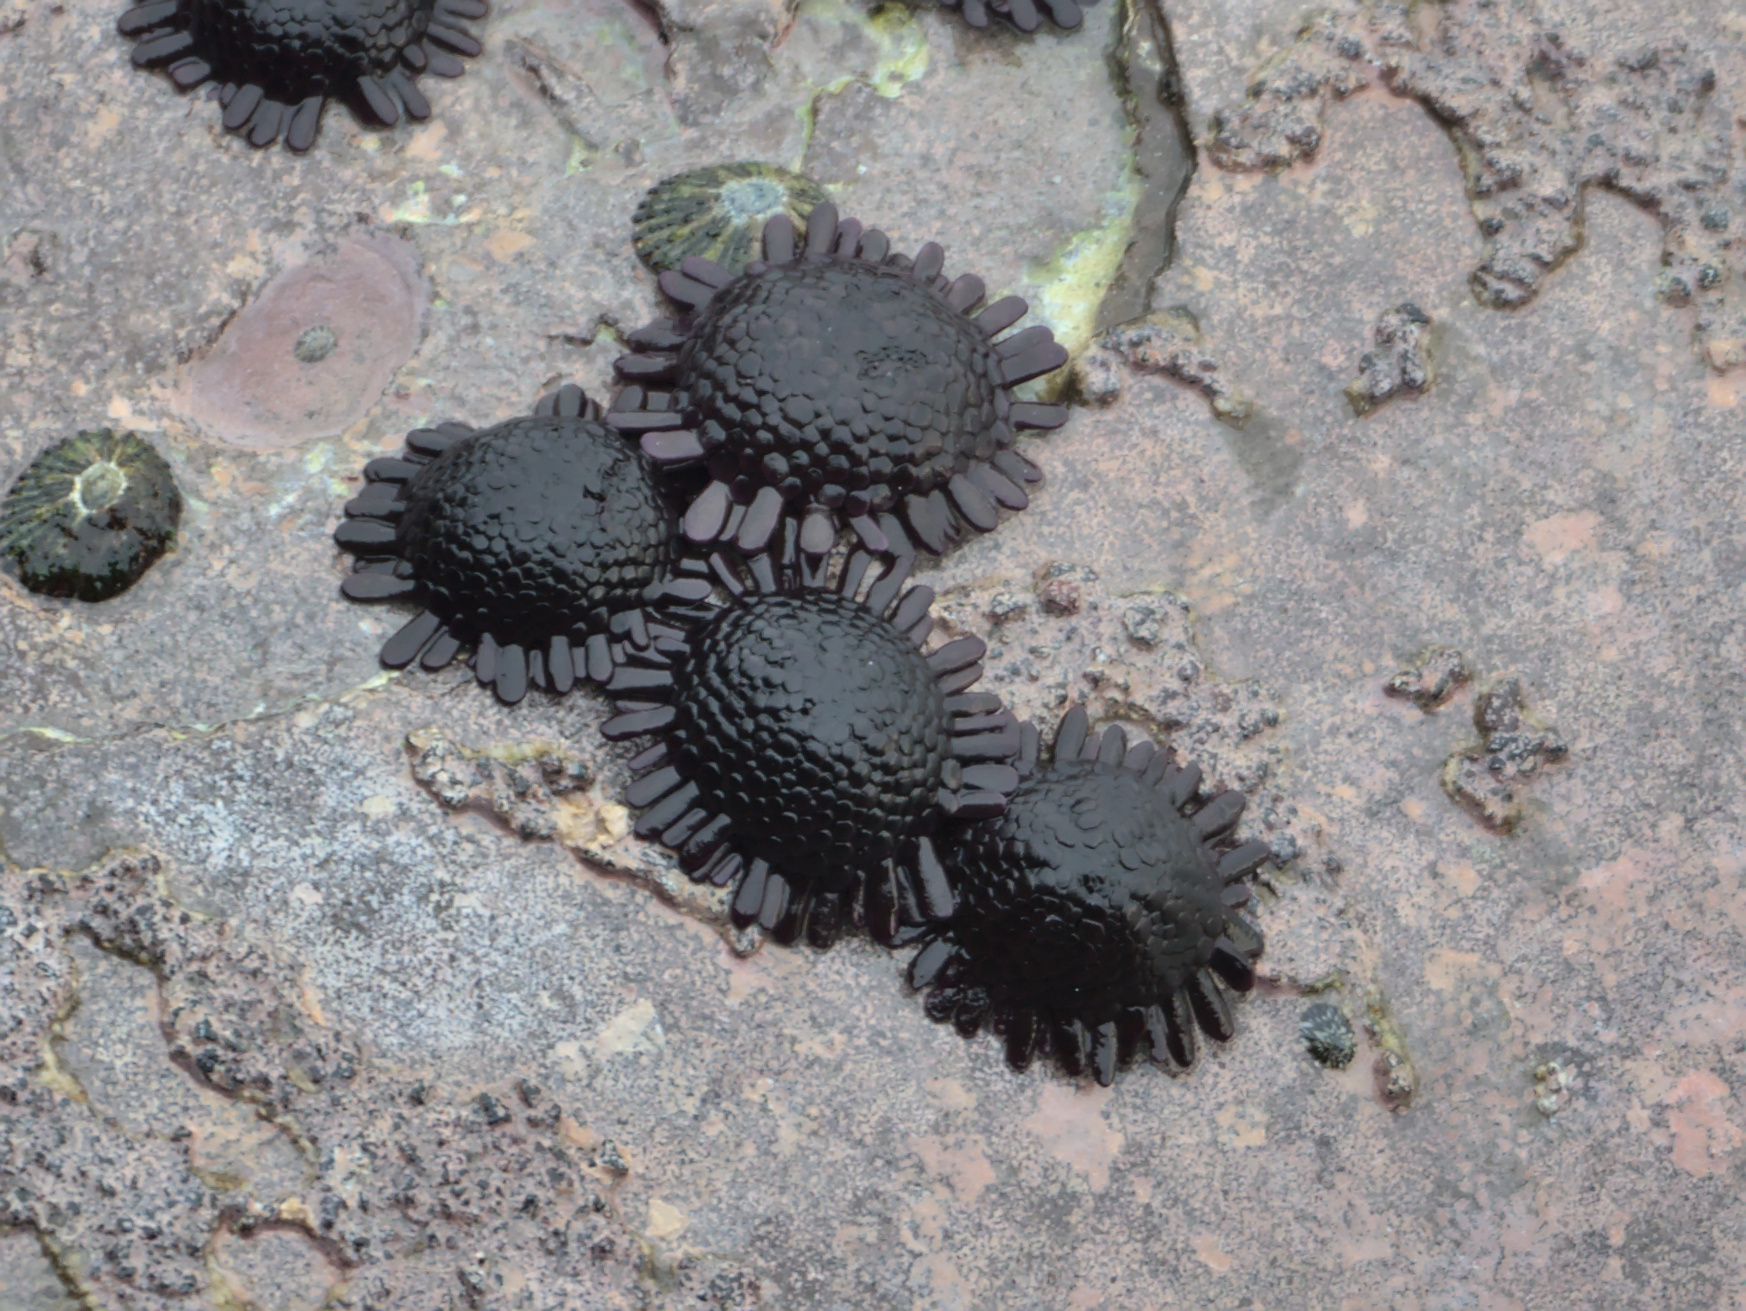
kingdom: Animalia
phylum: Echinodermata
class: Echinoidea
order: Camarodonta
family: Echinometridae
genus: Colobocentrotus
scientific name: Colobocentrotus atratus
